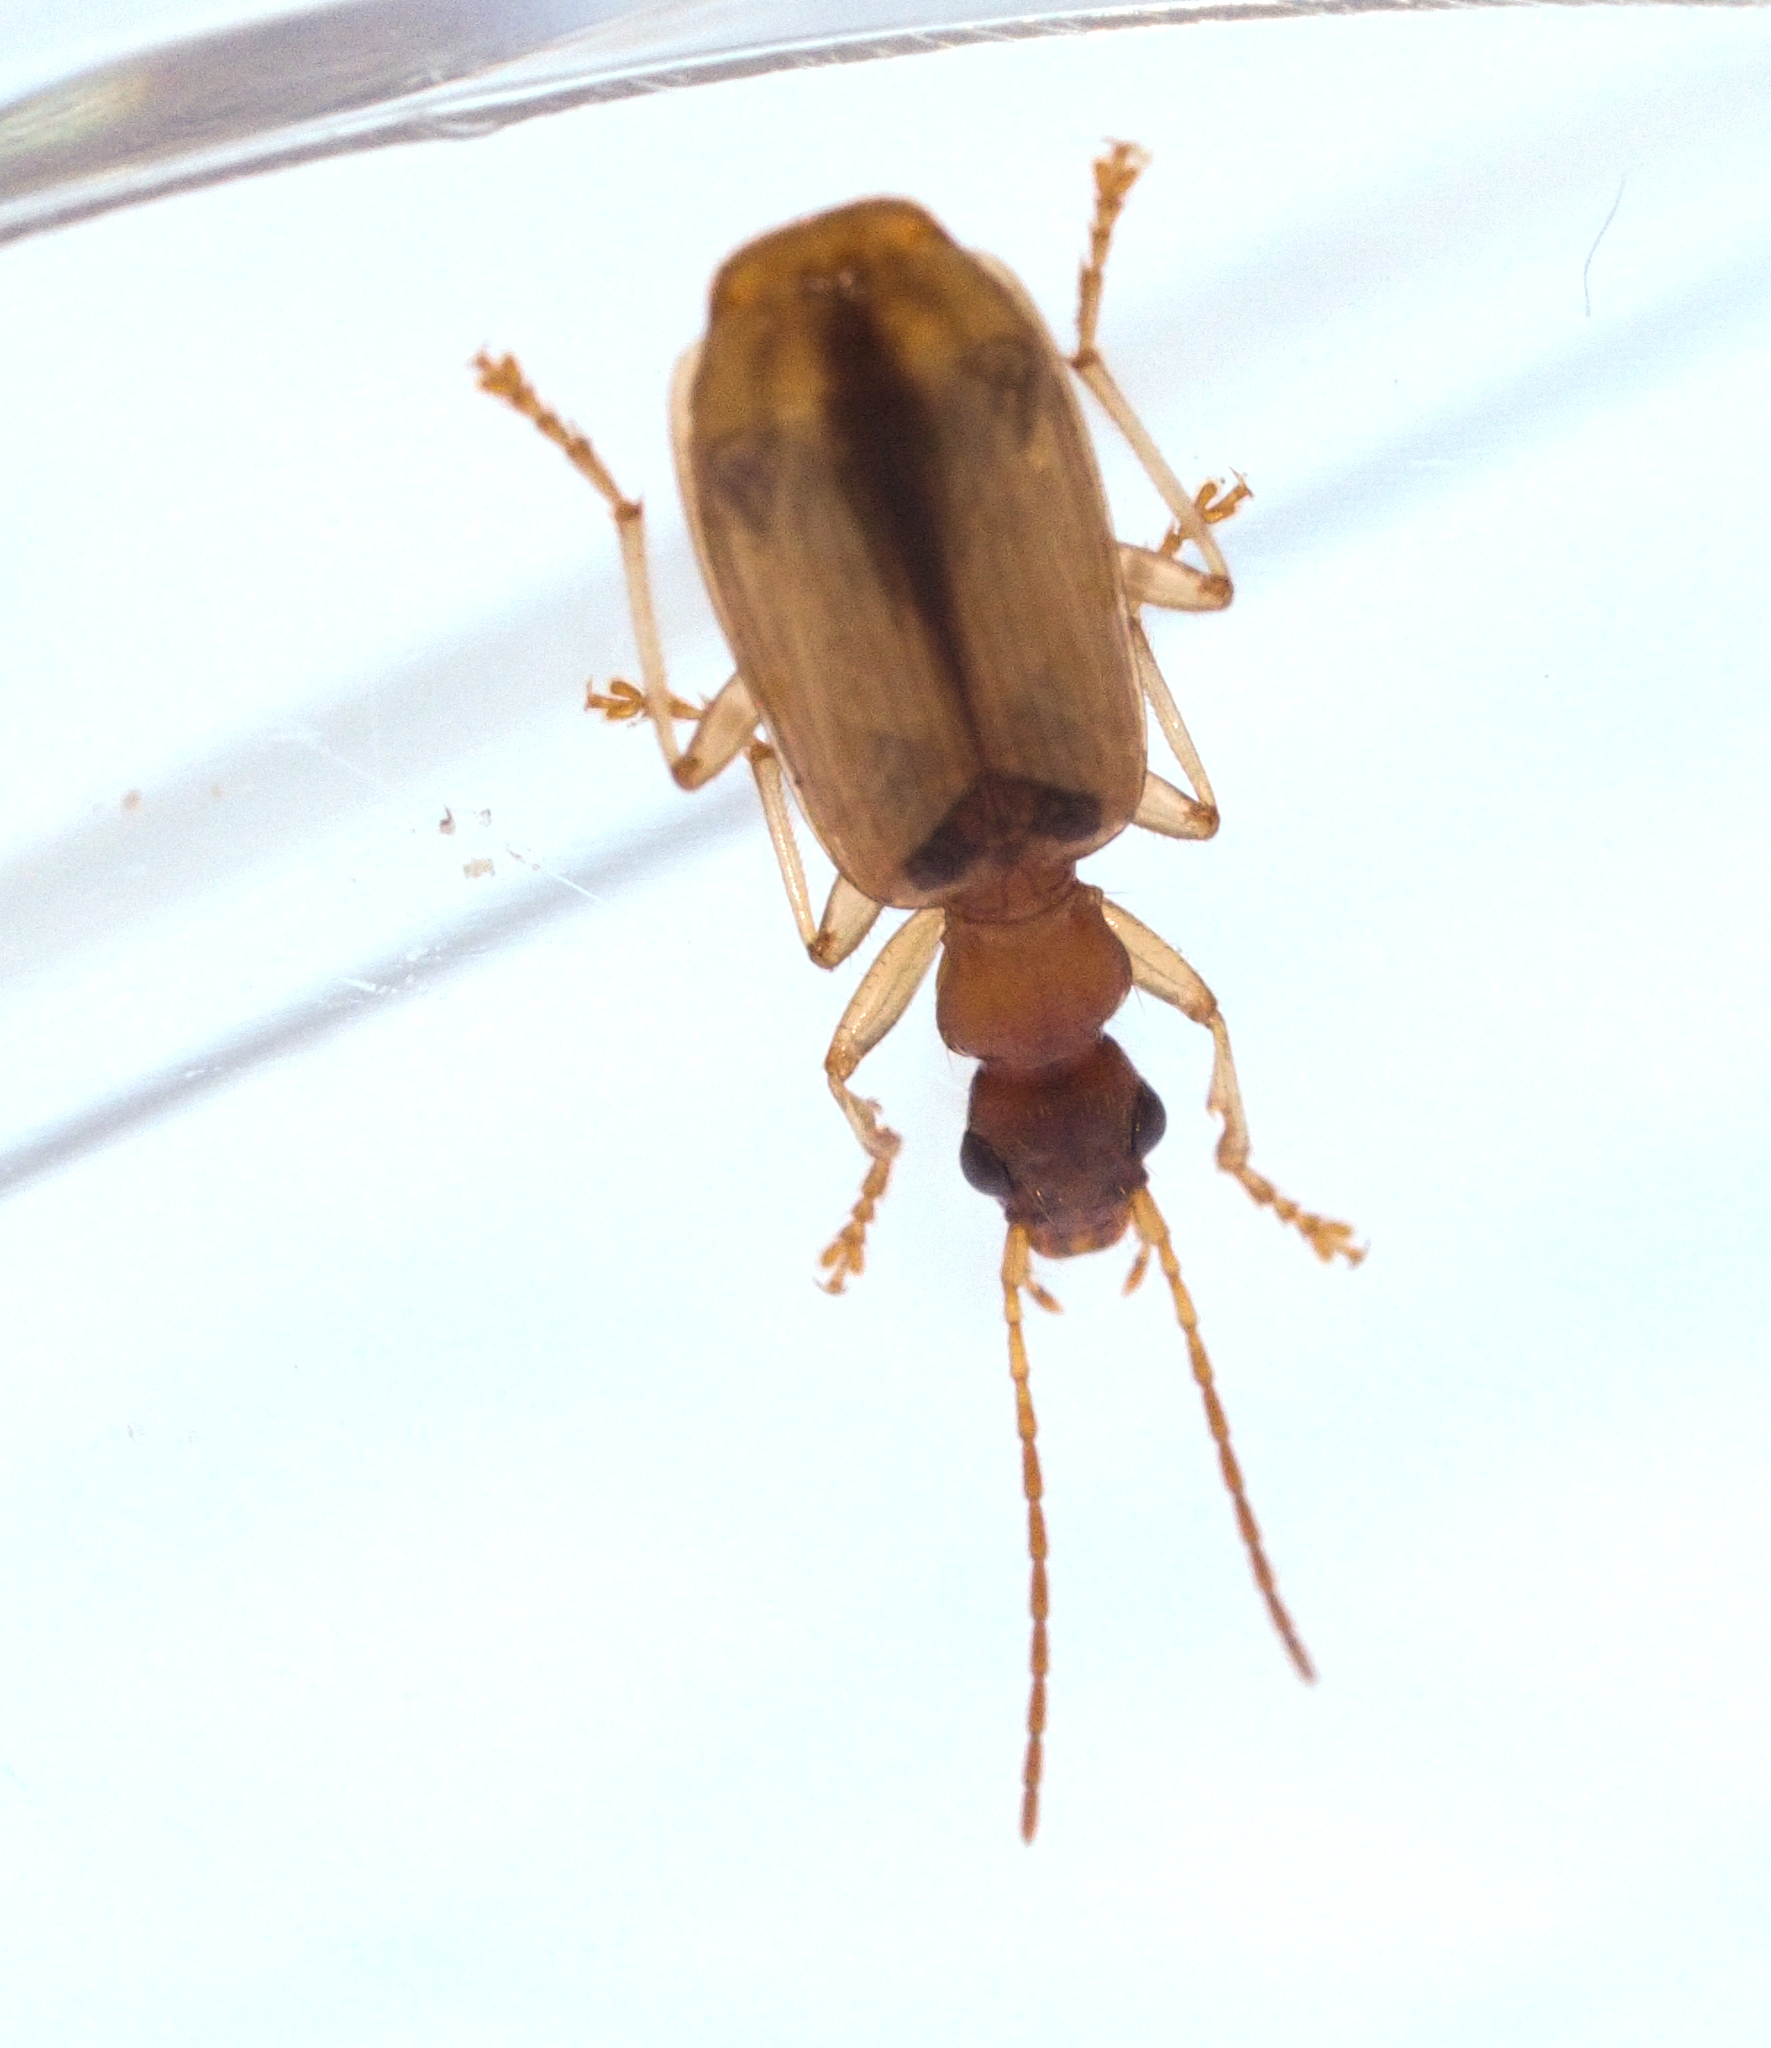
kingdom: Animalia
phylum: Arthropoda
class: Insecta
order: Coleoptera
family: Carabidae
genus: Demetrias
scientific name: Demetrias atricapillus
